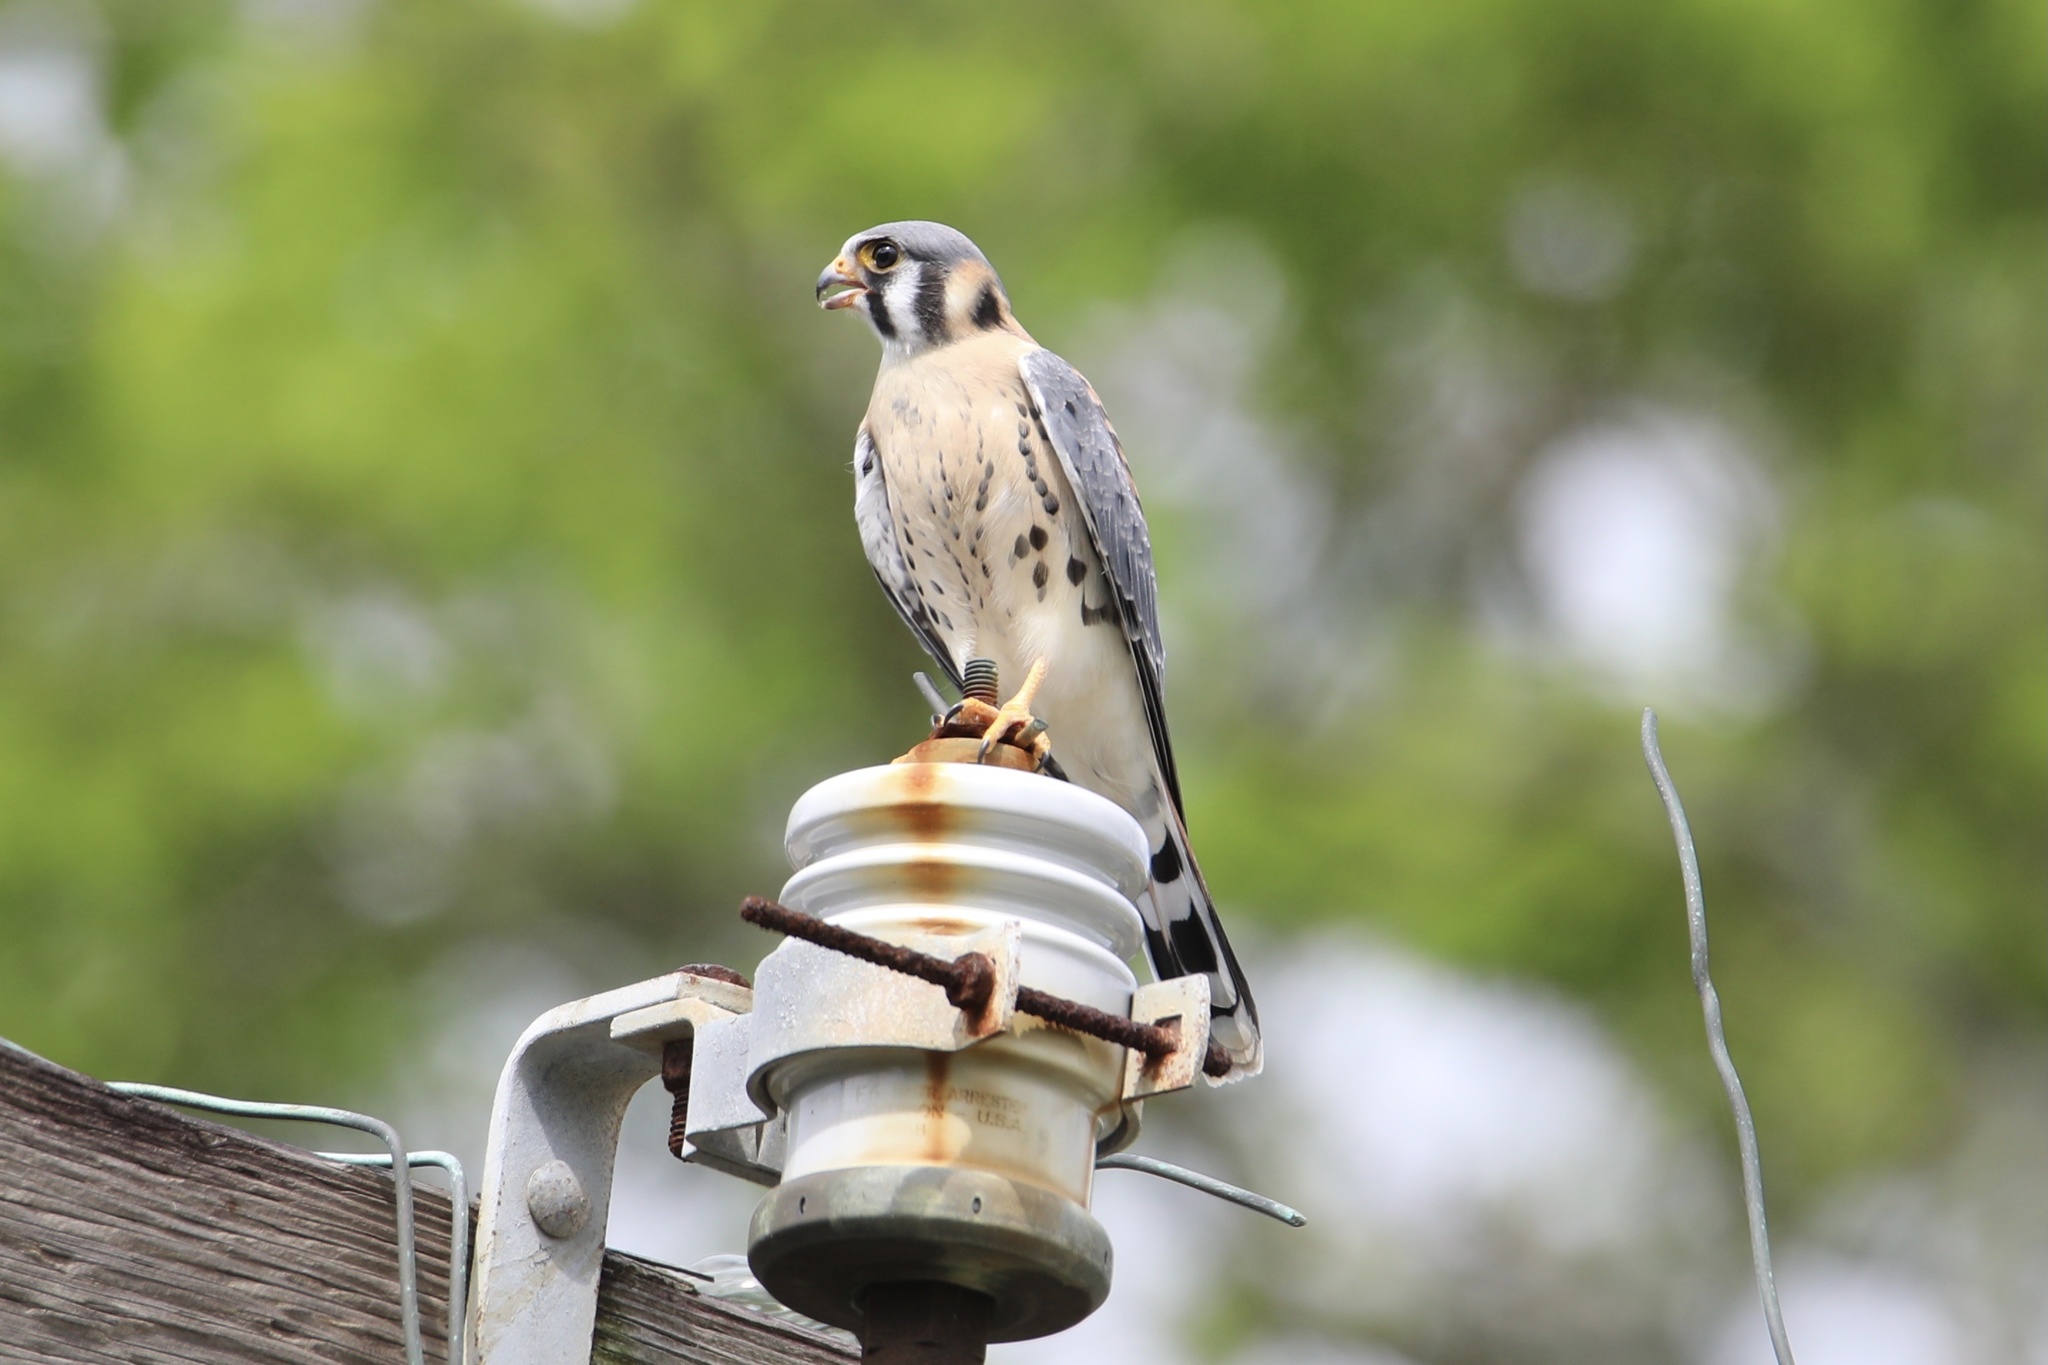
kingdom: Animalia
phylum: Chordata
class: Aves
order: Falconiformes
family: Falconidae
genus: Falco
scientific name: Falco sparverius
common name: American kestrel
